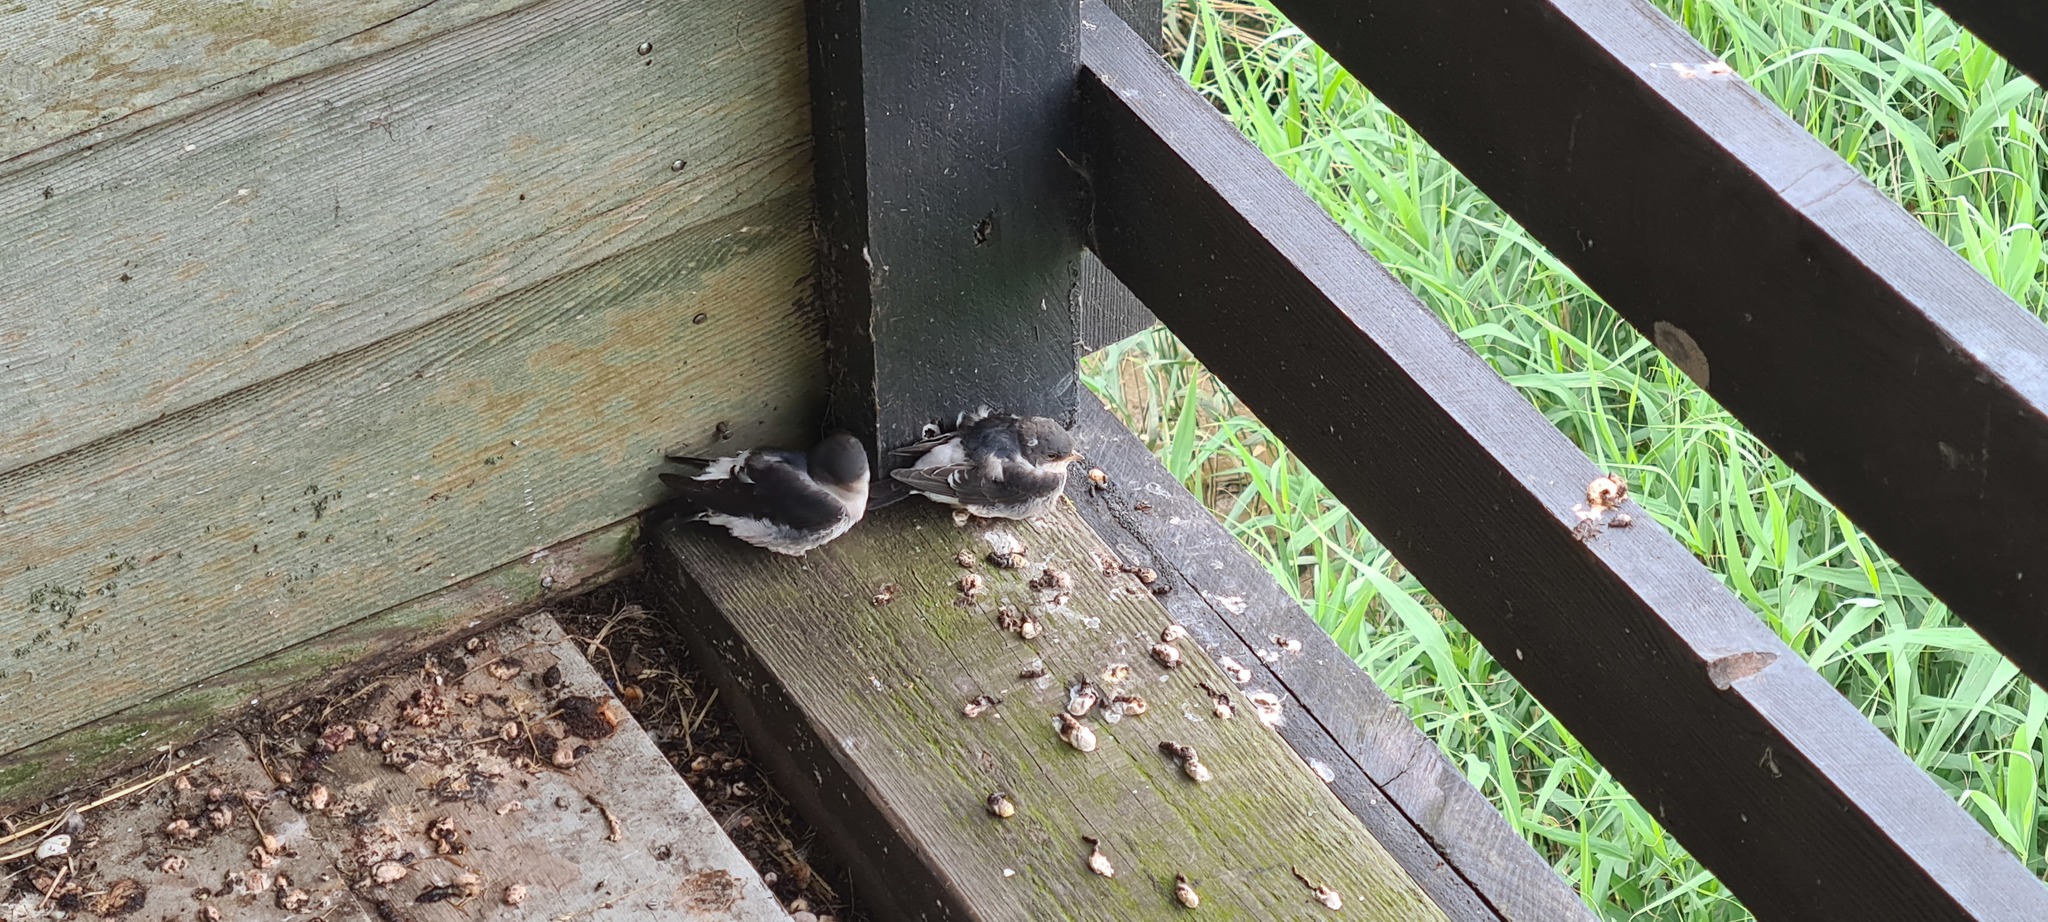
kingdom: Animalia
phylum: Chordata
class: Aves
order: Passeriformes
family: Hirundinidae
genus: Delichon
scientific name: Delichon urbicum
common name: Common house martin
